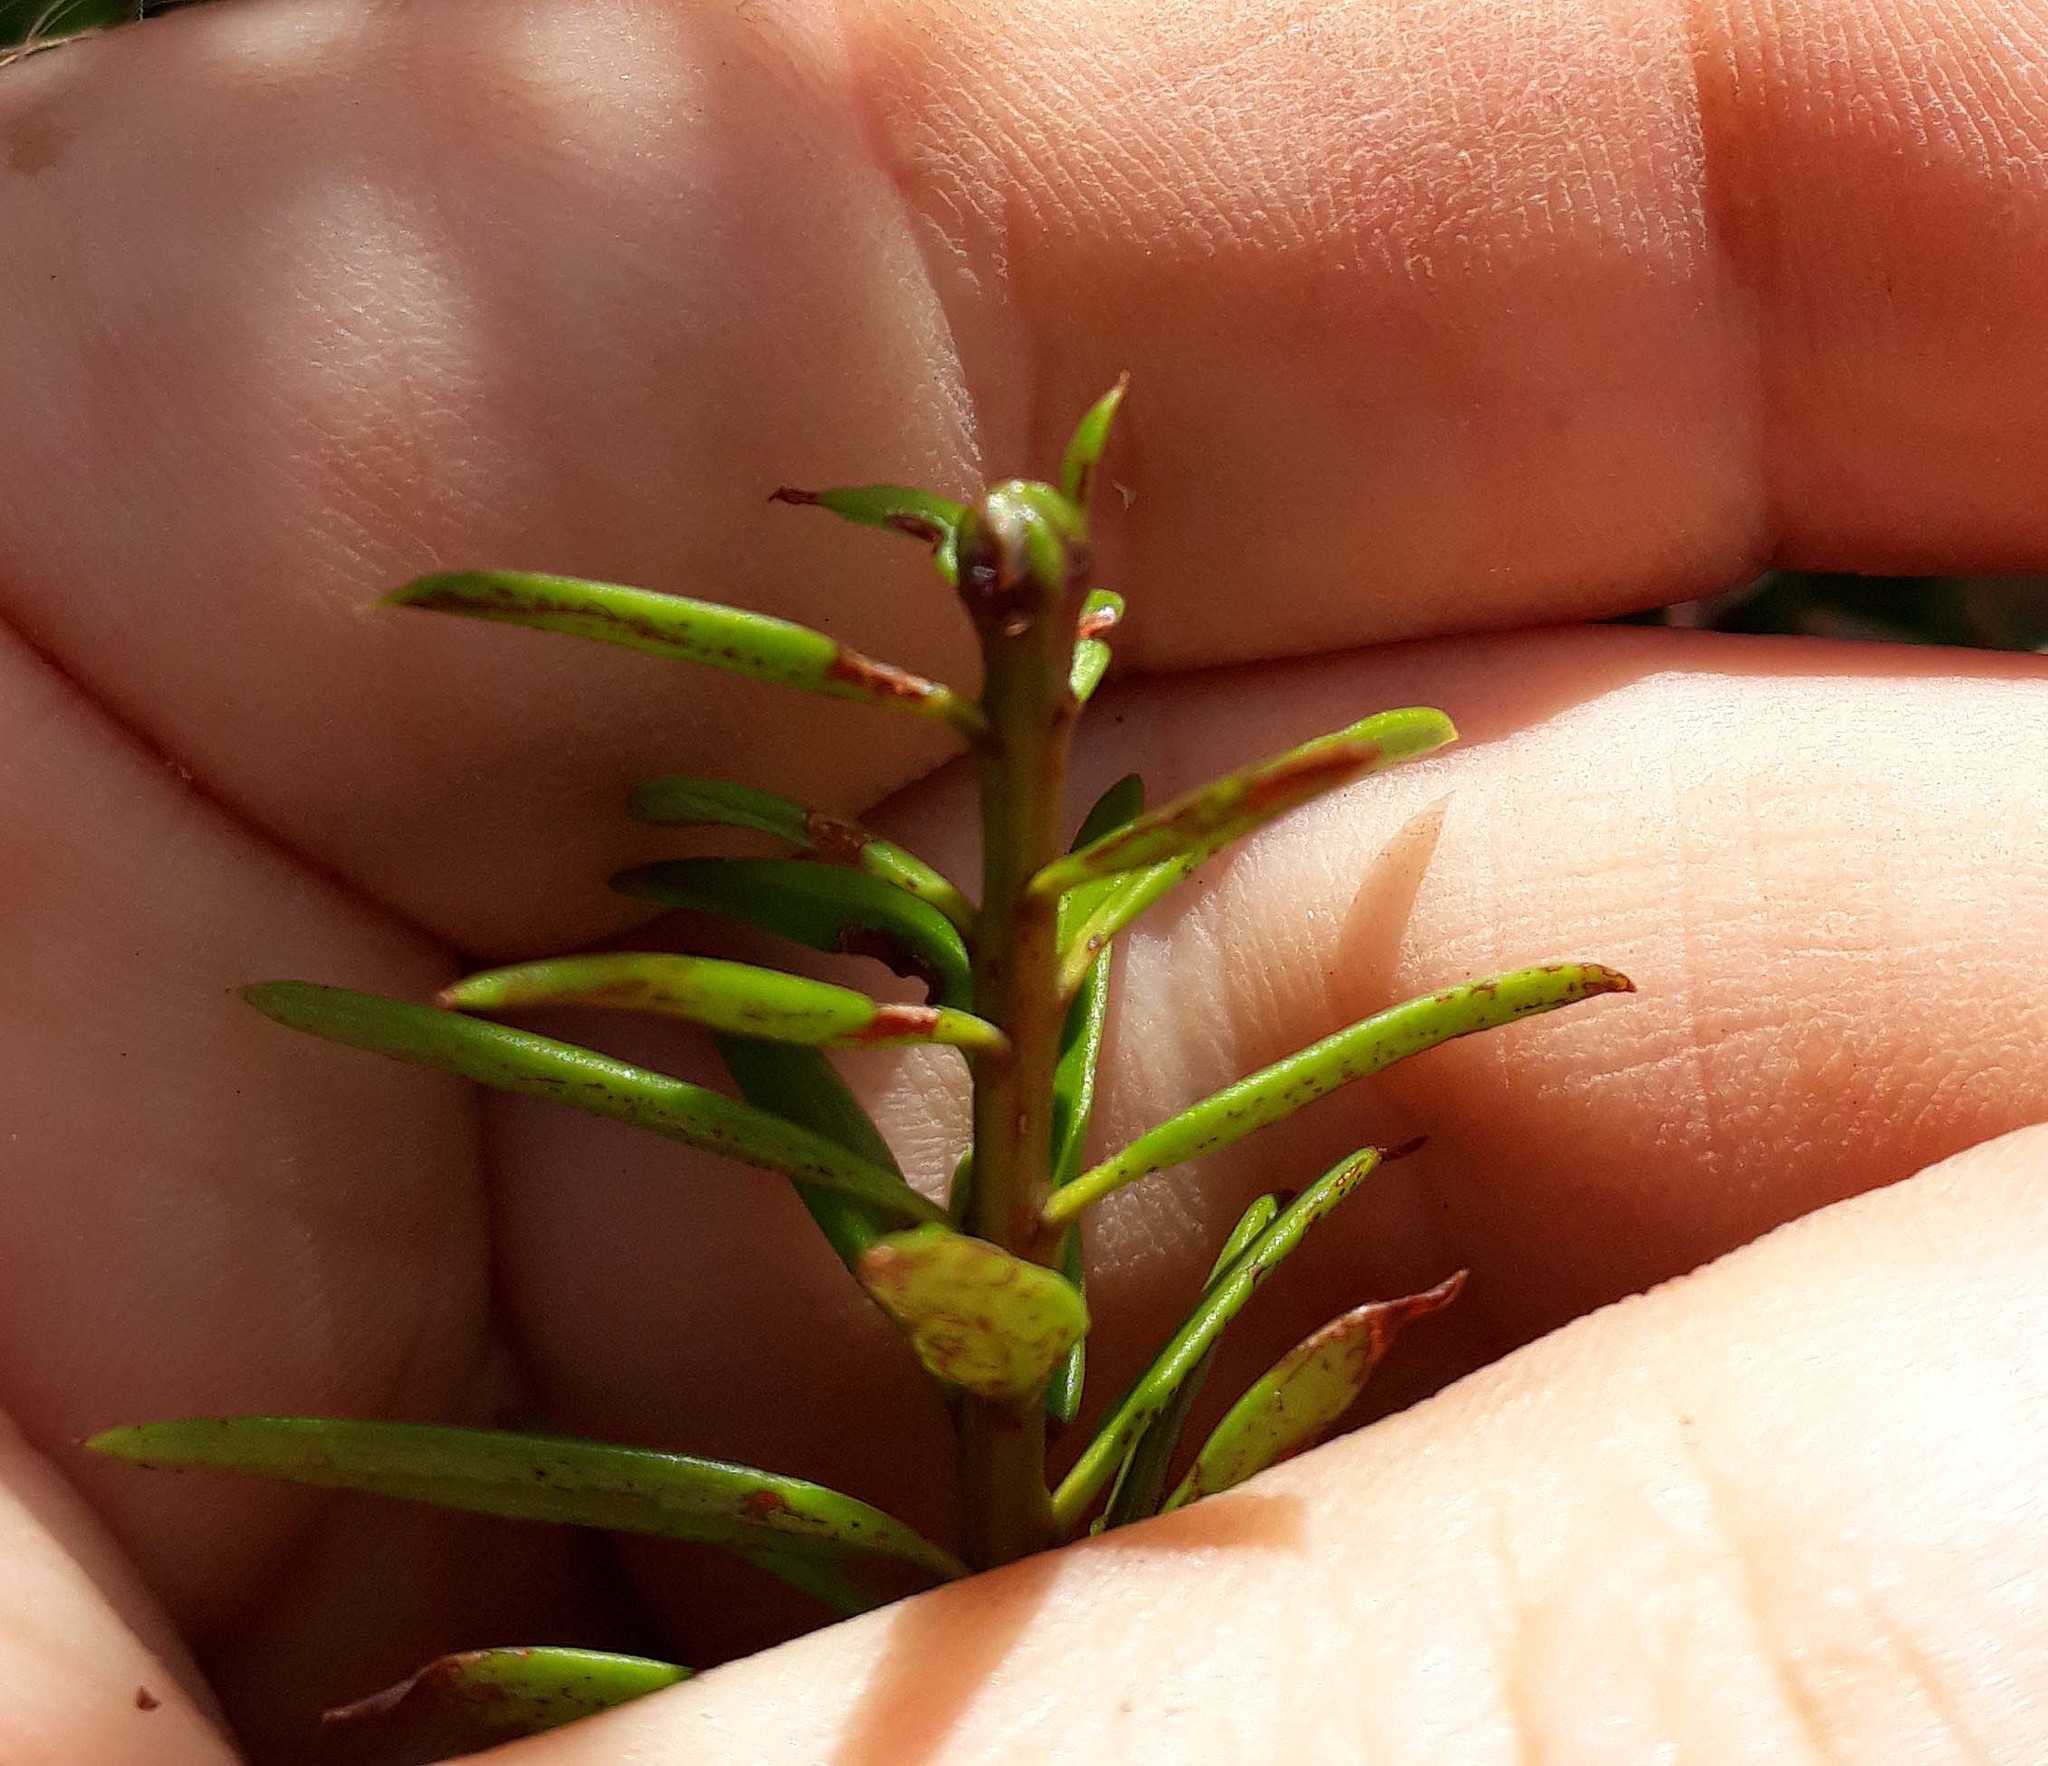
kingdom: Plantae
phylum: Tracheophyta
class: Pinopsida
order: Pinales
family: Podocarpaceae
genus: Podocarpus
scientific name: Podocarpus laetus
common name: Hall's totara
